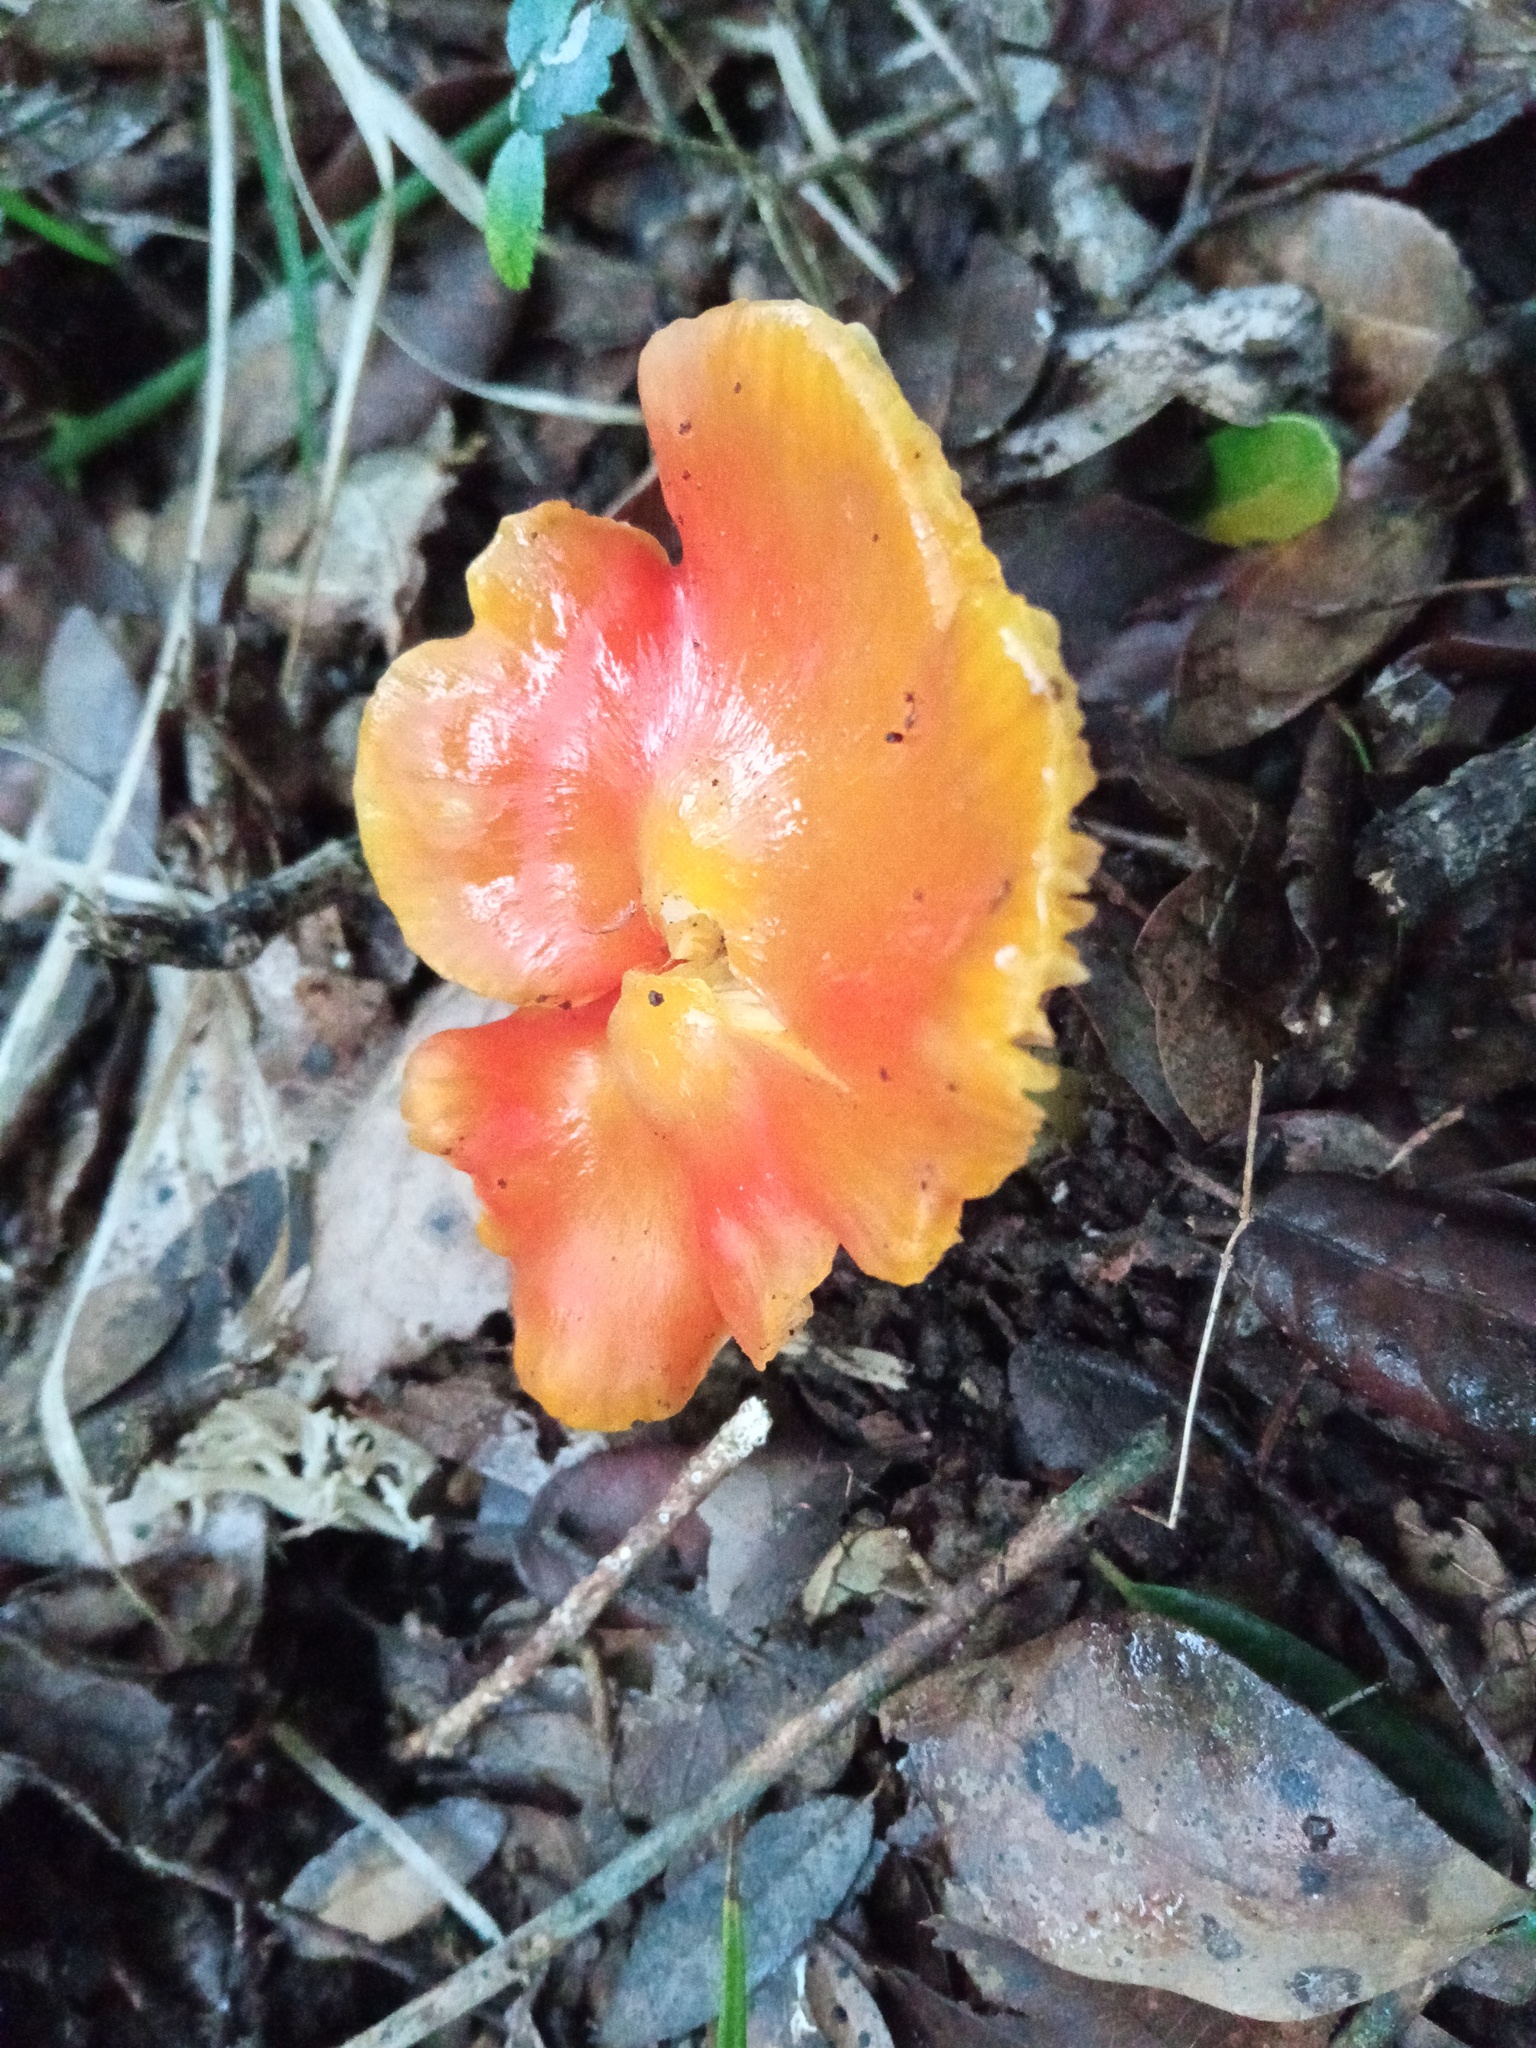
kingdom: Fungi
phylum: Basidiomycota
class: Agaricomycetes
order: Agaricales
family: Hygrophoraceae
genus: Hygrocybe
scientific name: Hygrocybe acutoconica
